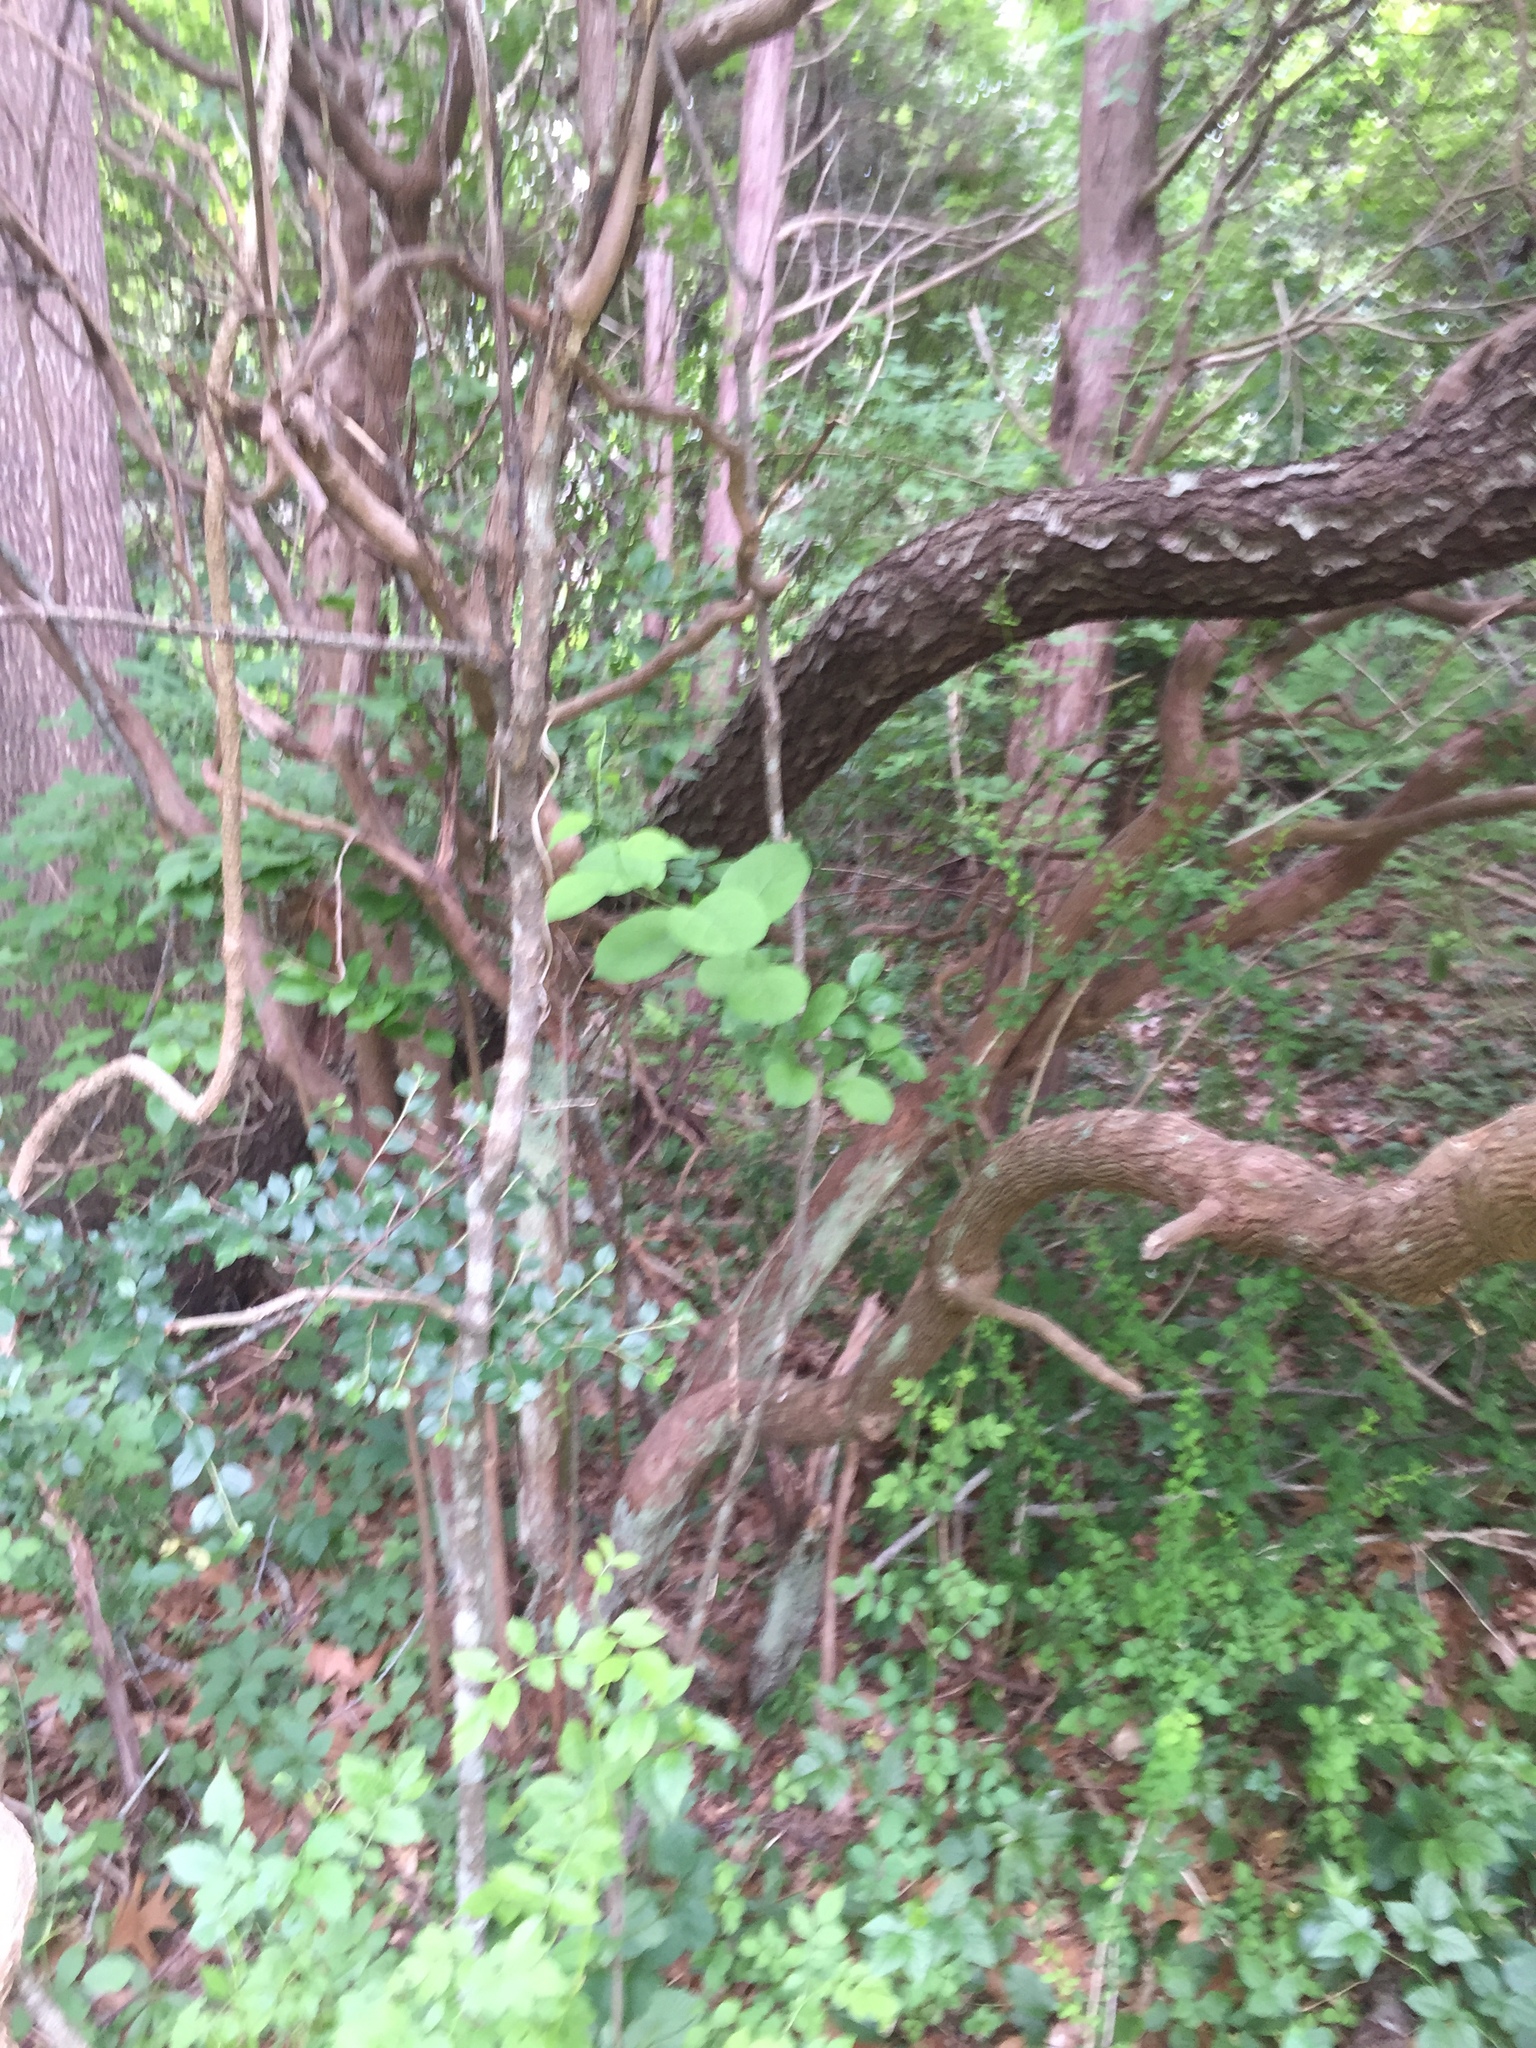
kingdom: Plantae
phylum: Tracheophyta
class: Magnoliopsida
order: Ericales
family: Ericaceae
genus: Vaccinium
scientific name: Vaccinium corymbosum
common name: Blueberry
